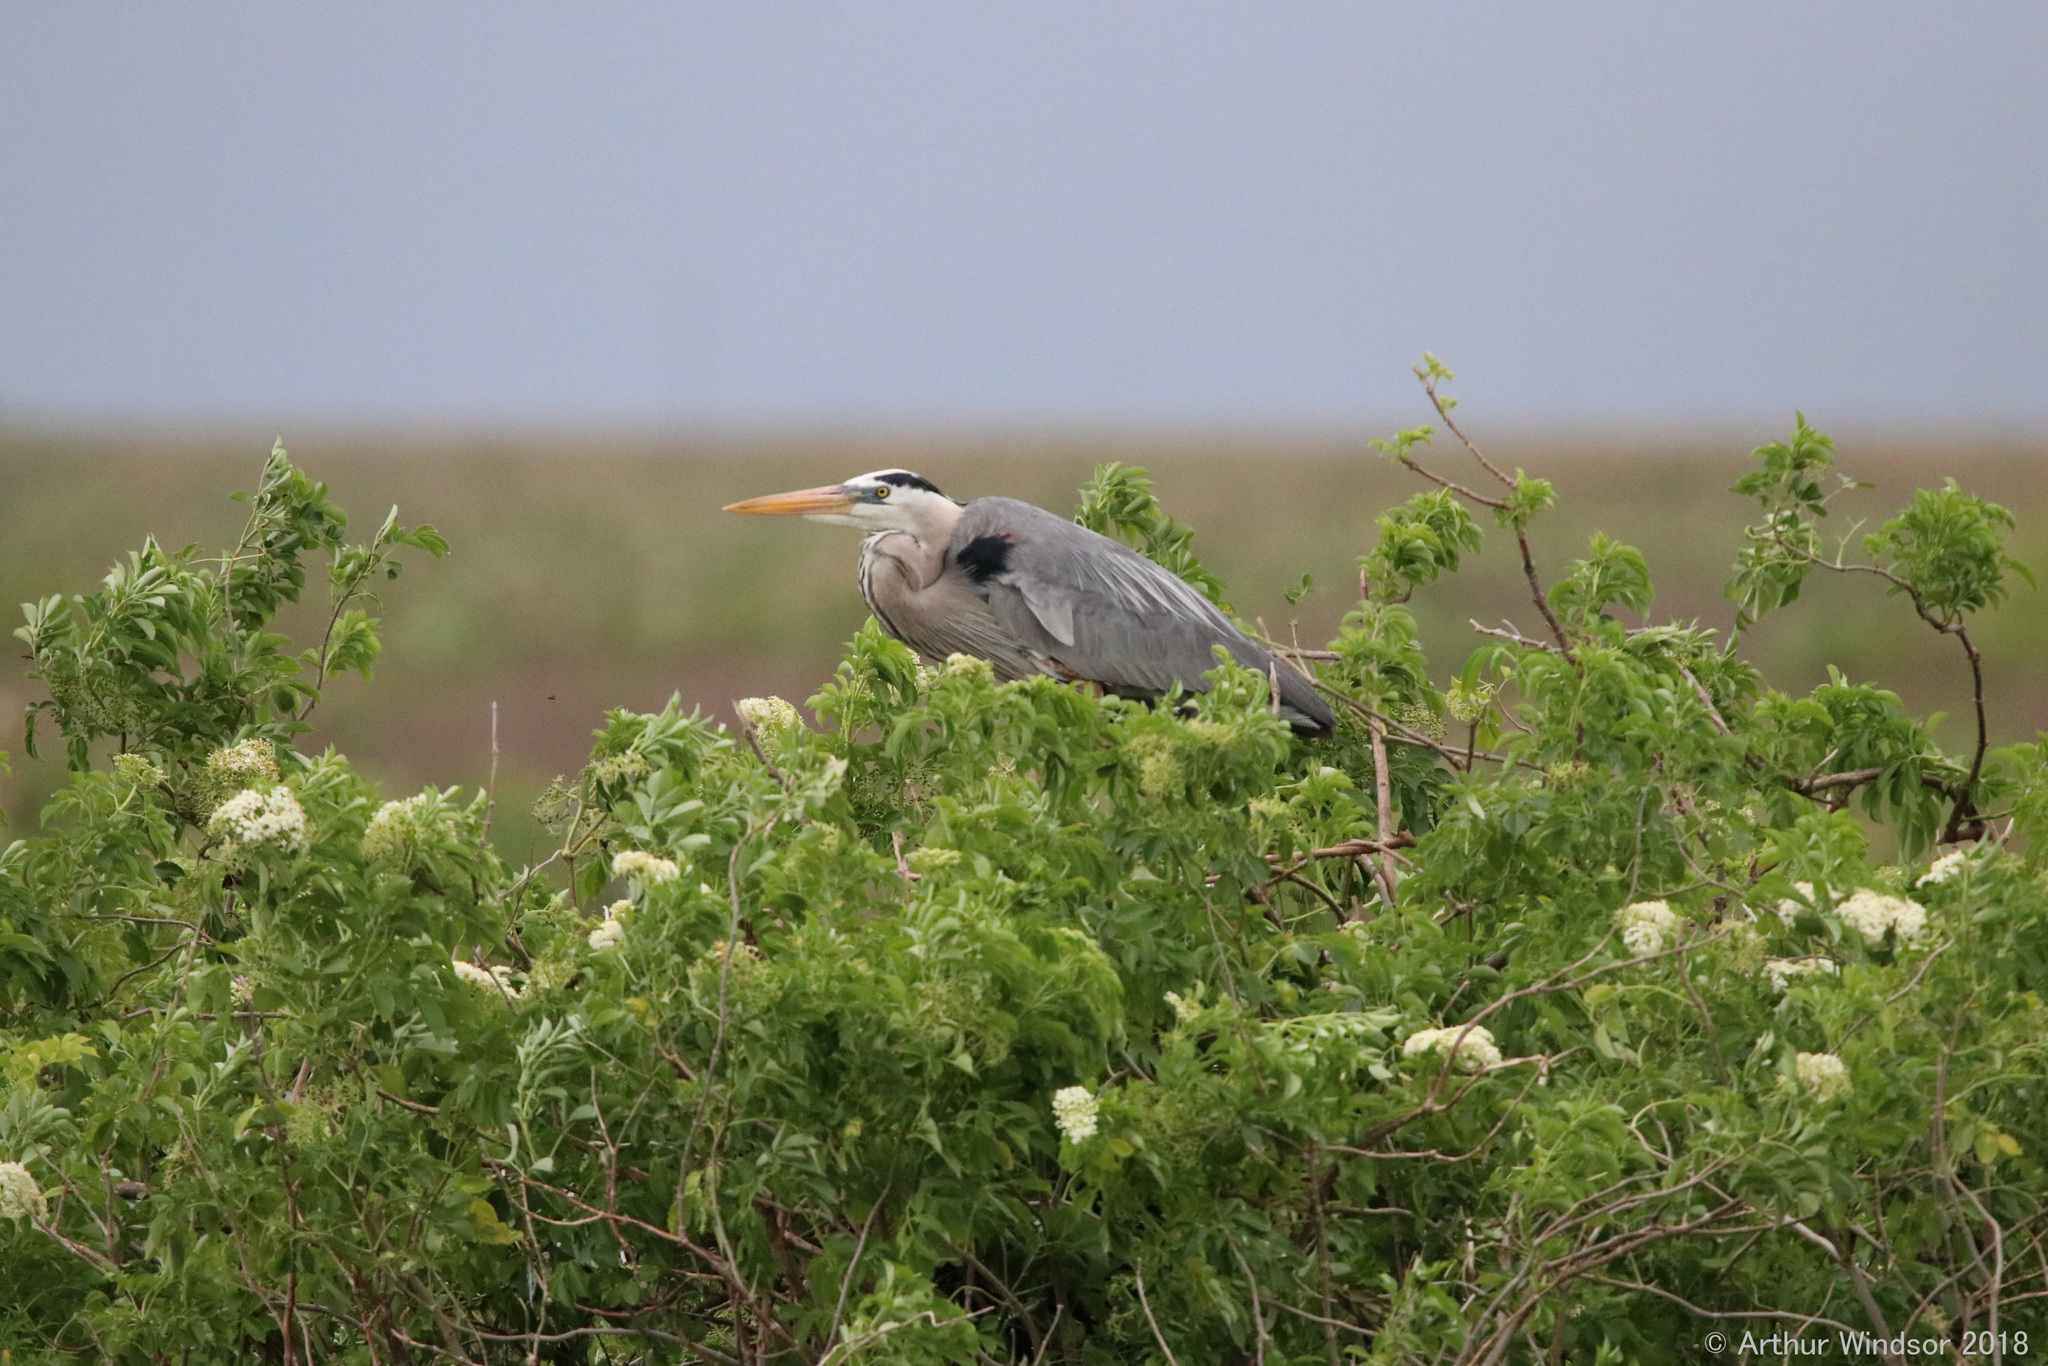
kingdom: Animalia
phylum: Chordata
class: Aves
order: Pelecaniformes
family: Ardeidae
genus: Ardea
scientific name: Ardea herodias
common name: Great blue heron
